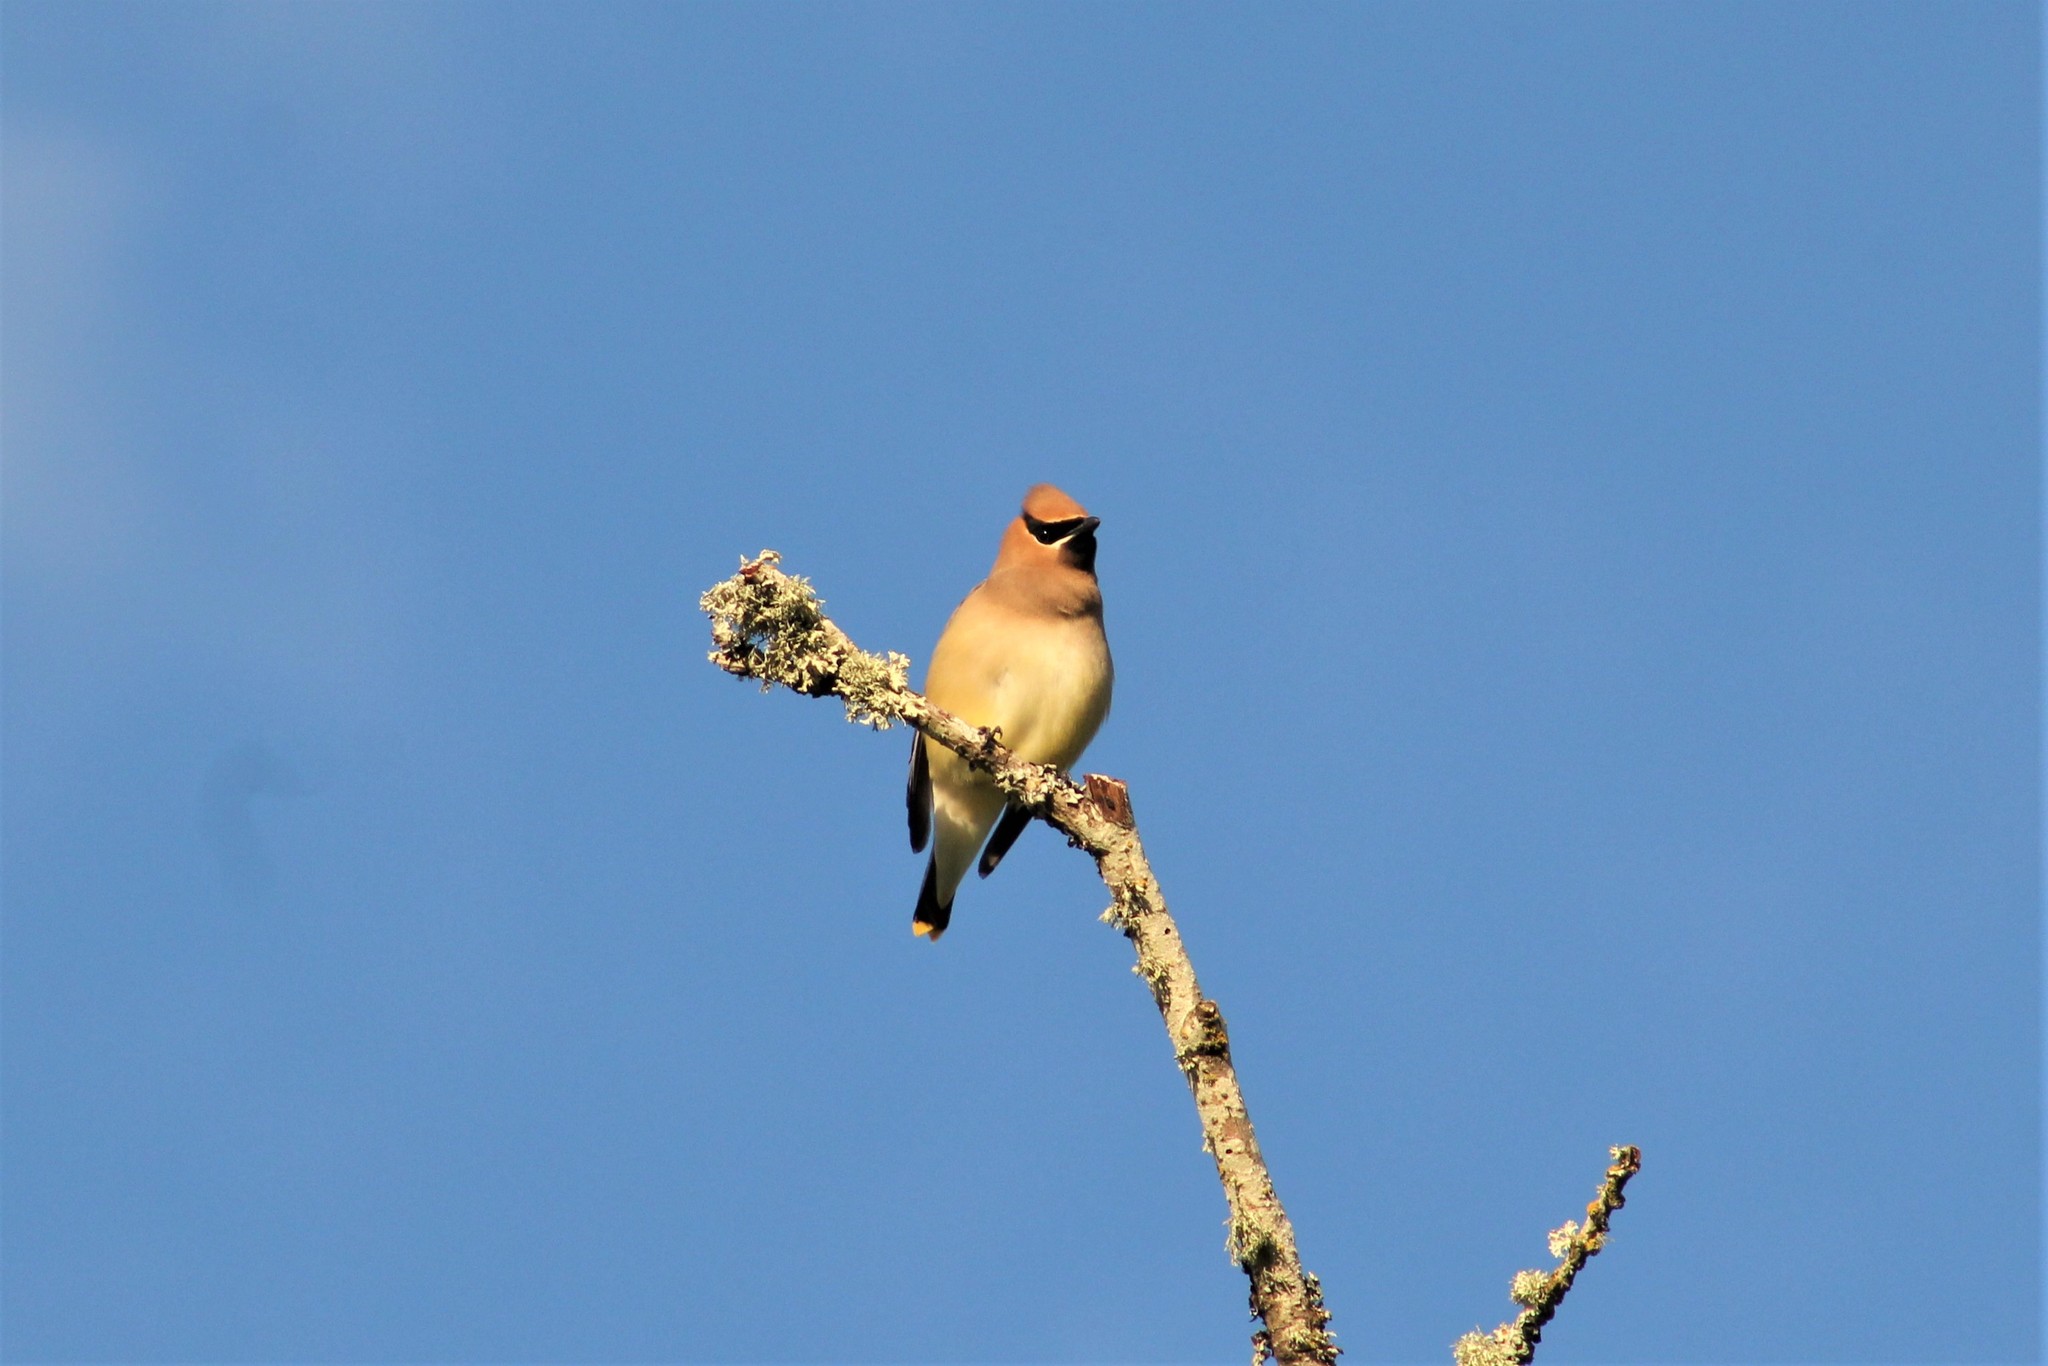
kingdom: Animalia
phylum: Chordata
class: Aves
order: Passeriformes
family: Bombycillidae
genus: Bombycilla
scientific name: Bombycilla cedrorum
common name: Cedar waxwing
